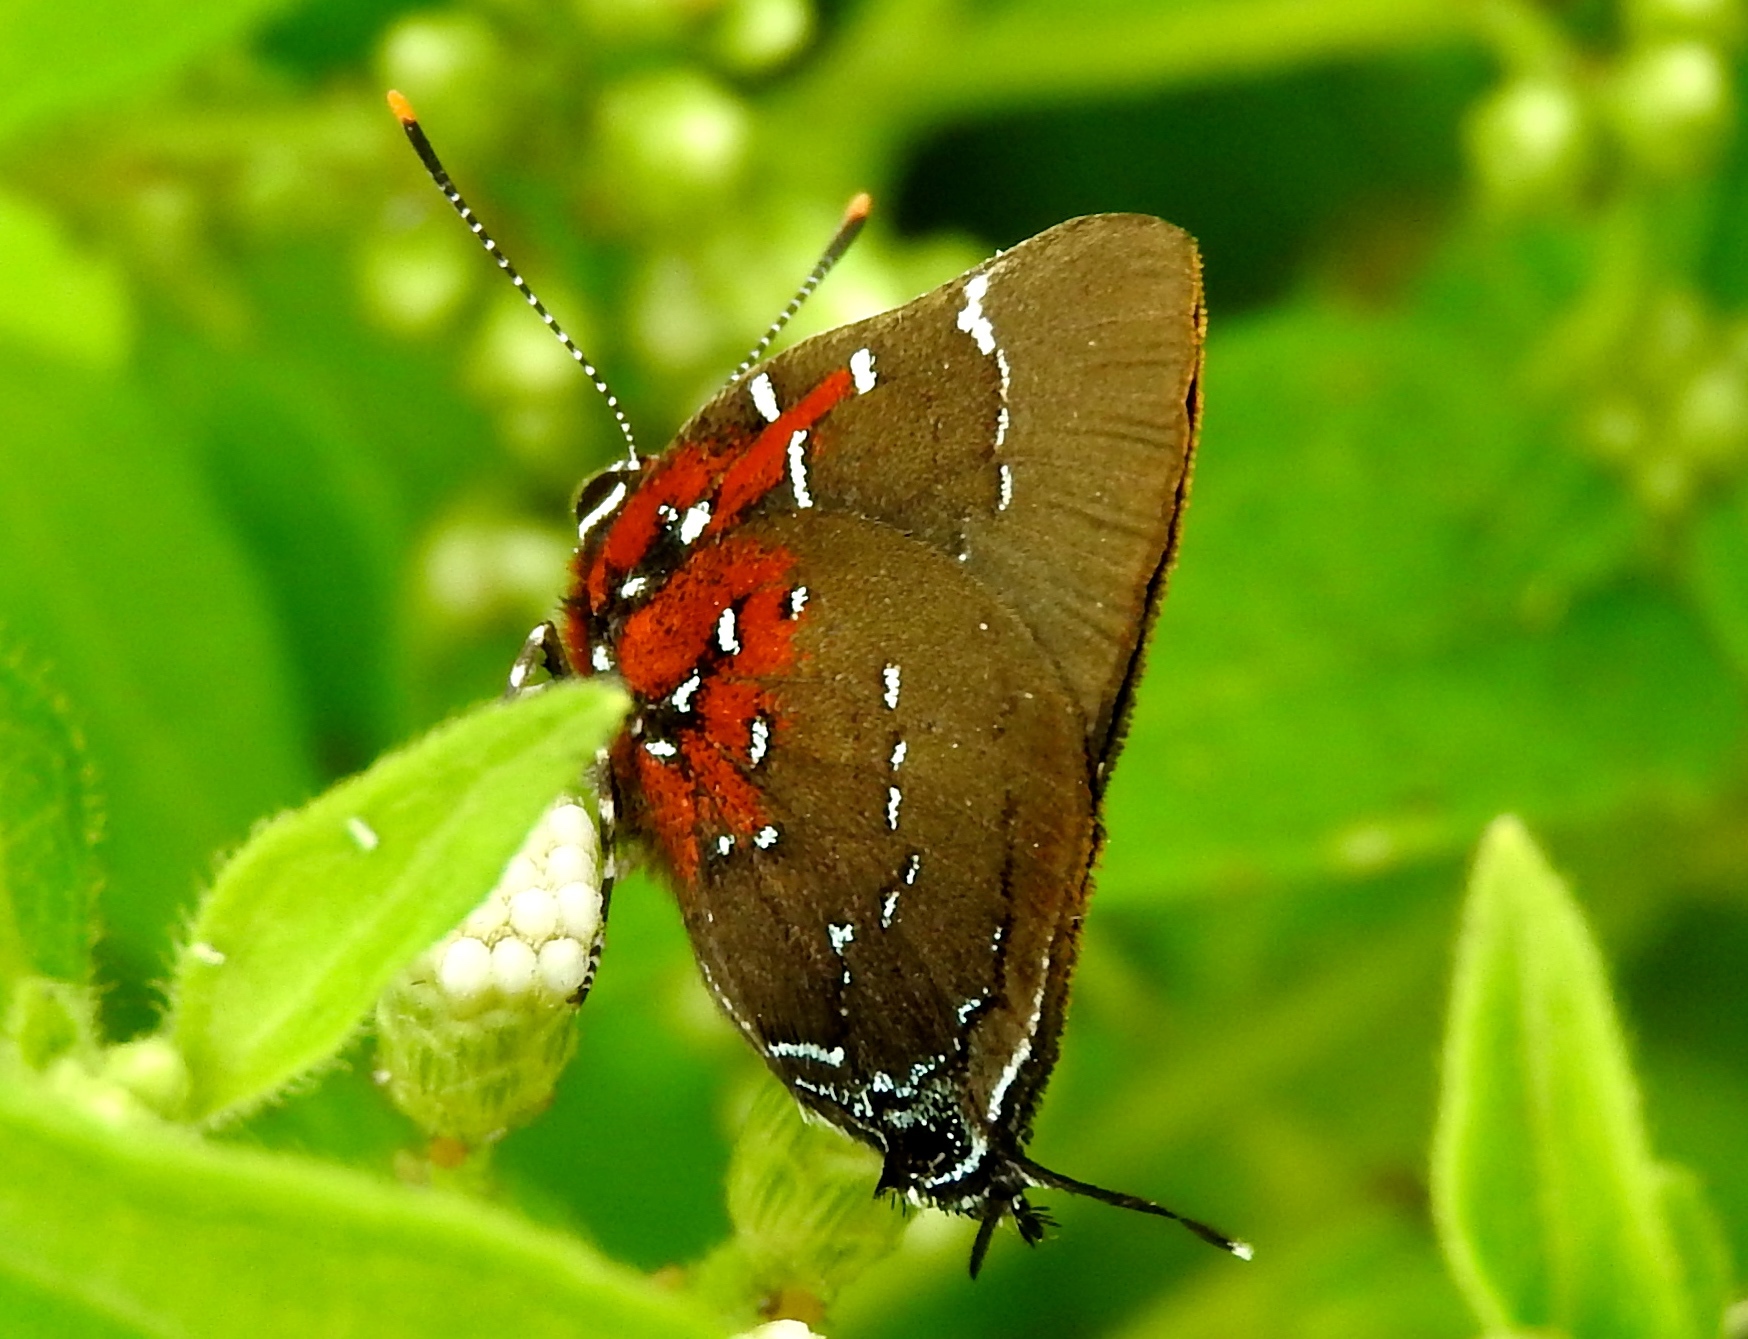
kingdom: Animalia
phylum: Arthropoda
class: Insecta
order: Lepidoptera
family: Lycaenidae
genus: Atlides
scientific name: Atlides Brangas neora
